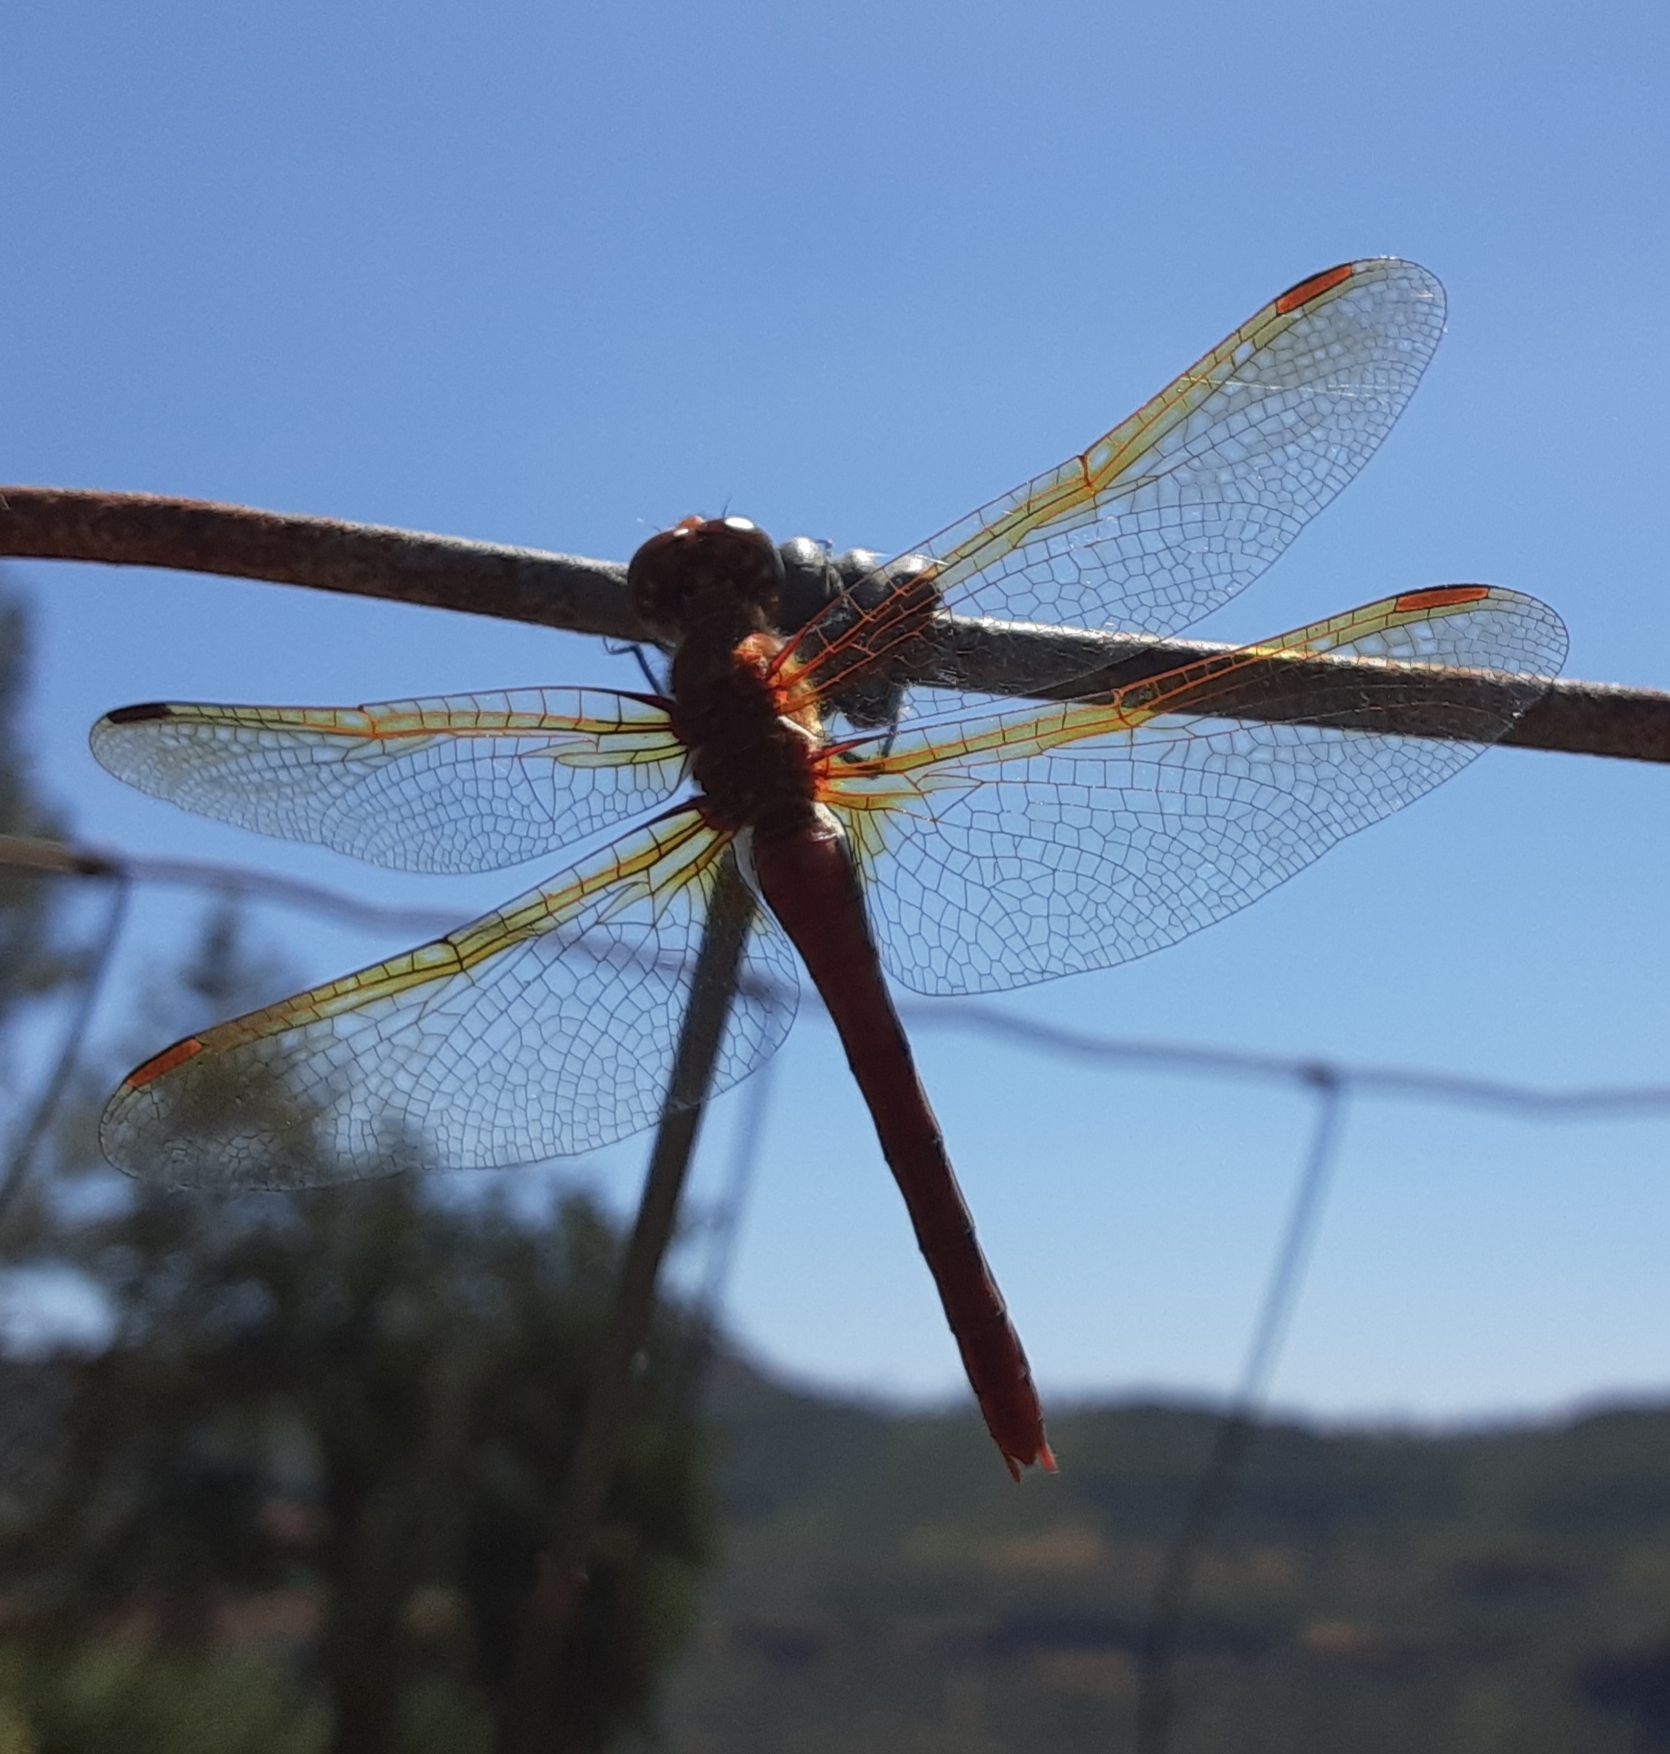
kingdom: Animalia
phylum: Arthropoda
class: Insecta
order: Odonata
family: Libellulidae
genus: Sympetrum
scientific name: Sympetrum madidum
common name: Red-veined meadowhawk
